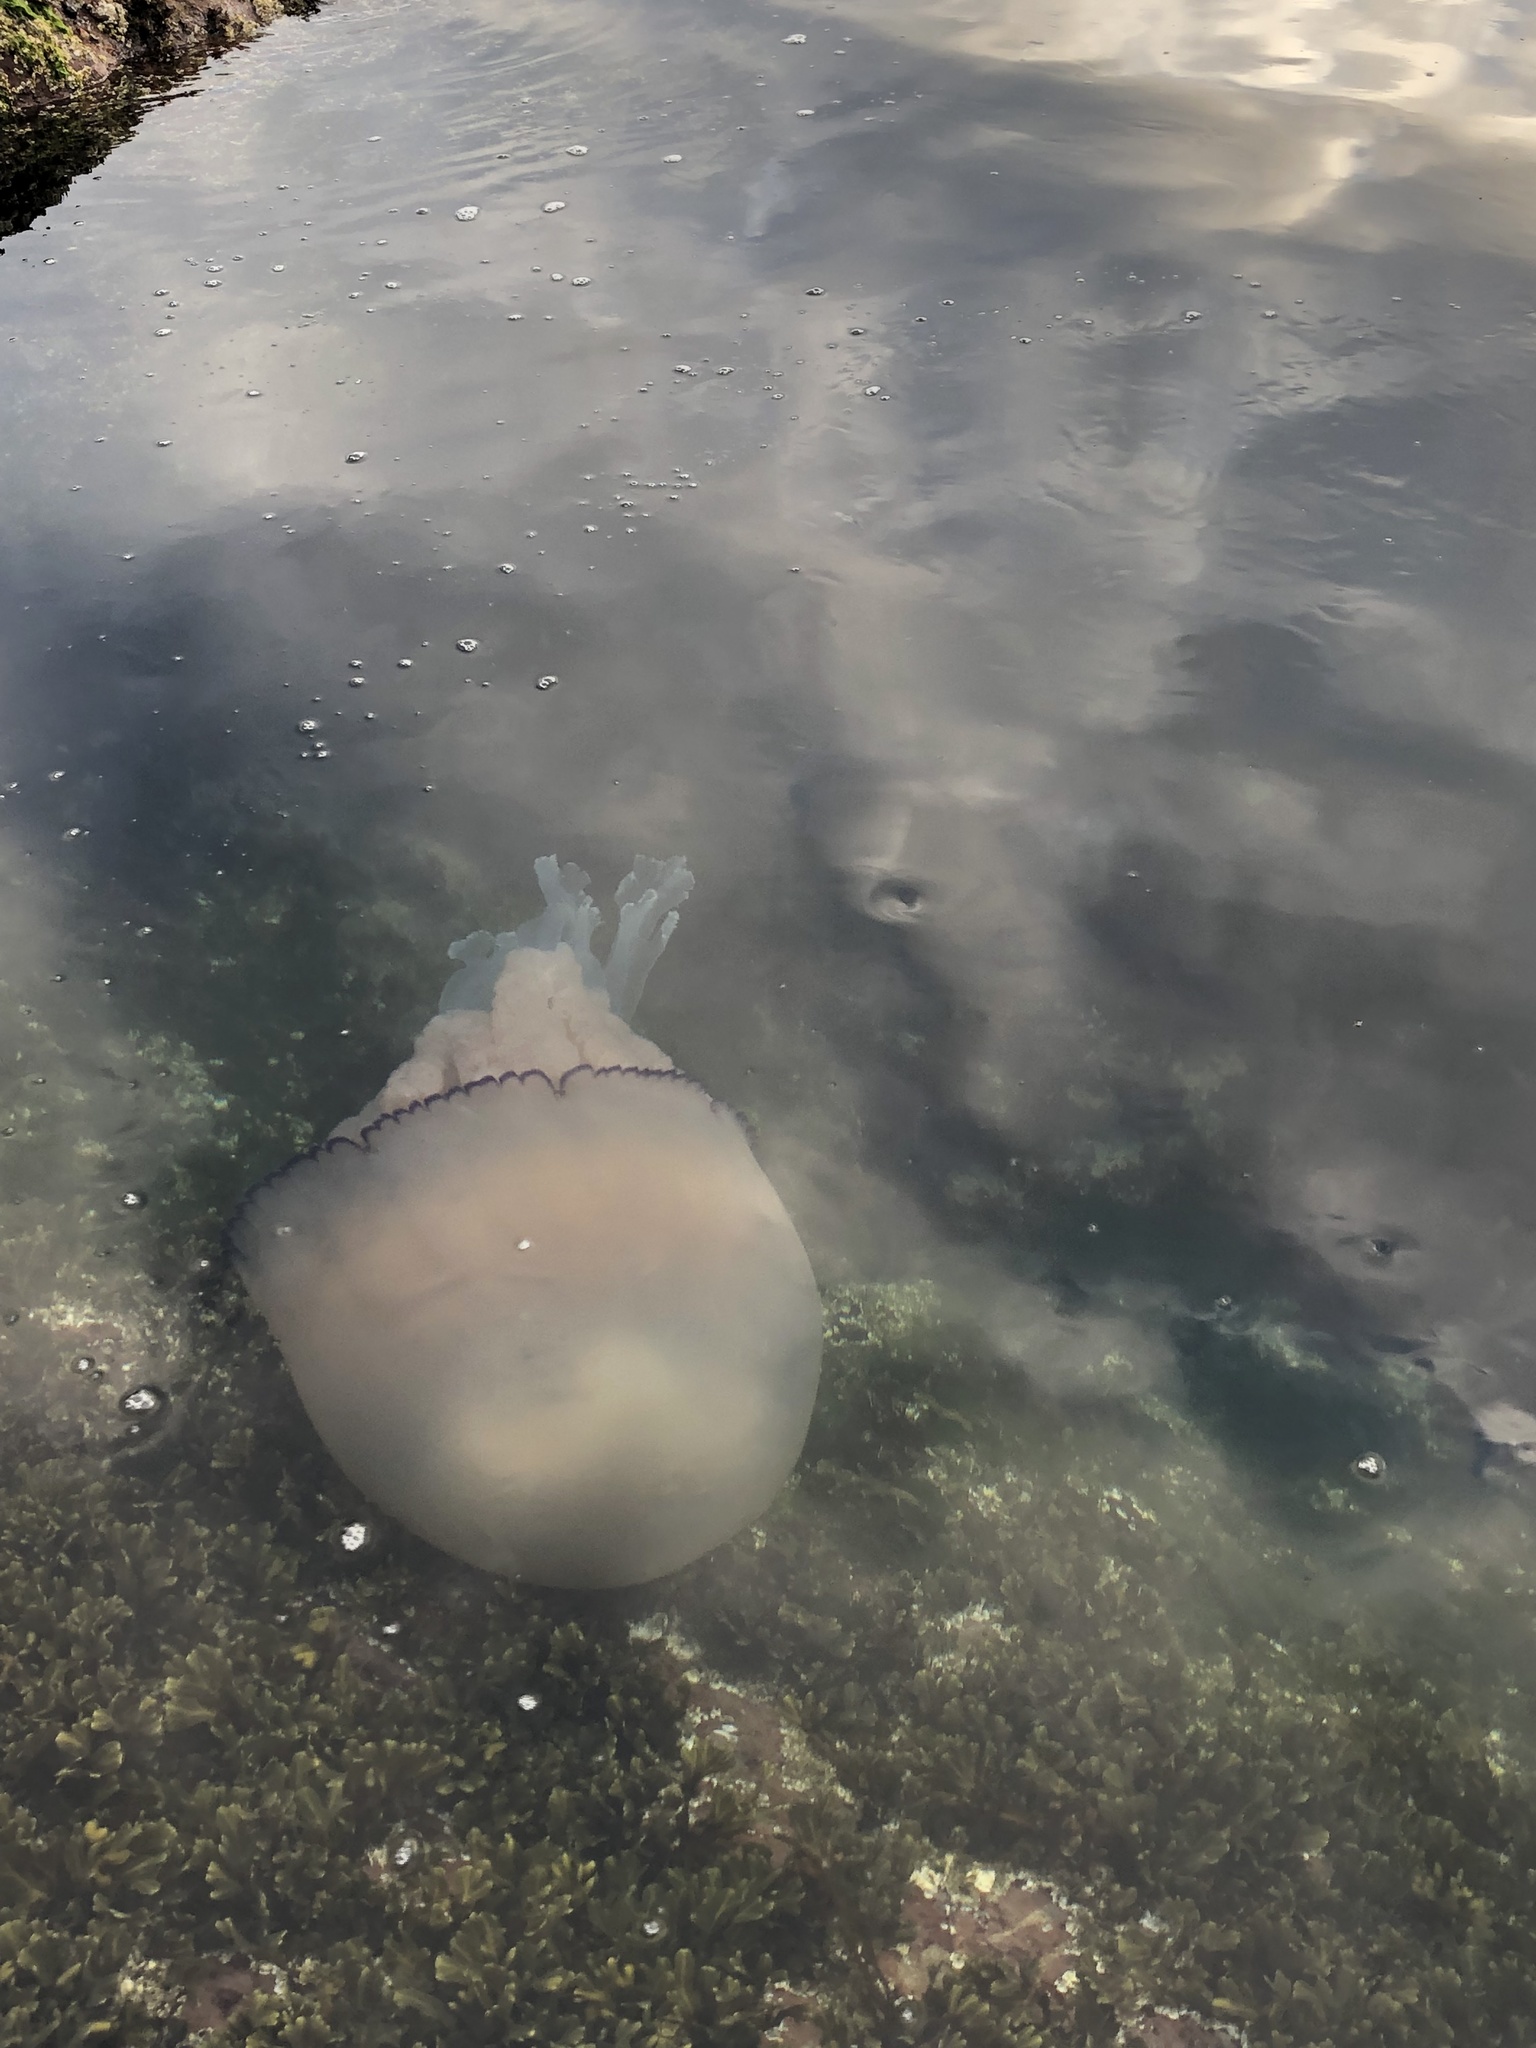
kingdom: Animalia
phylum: Cnidaria
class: Scyphozoa
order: Rhizostomeae
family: Rhizostomatidae
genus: Rhizostoma
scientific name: Rhizostoma octopus
